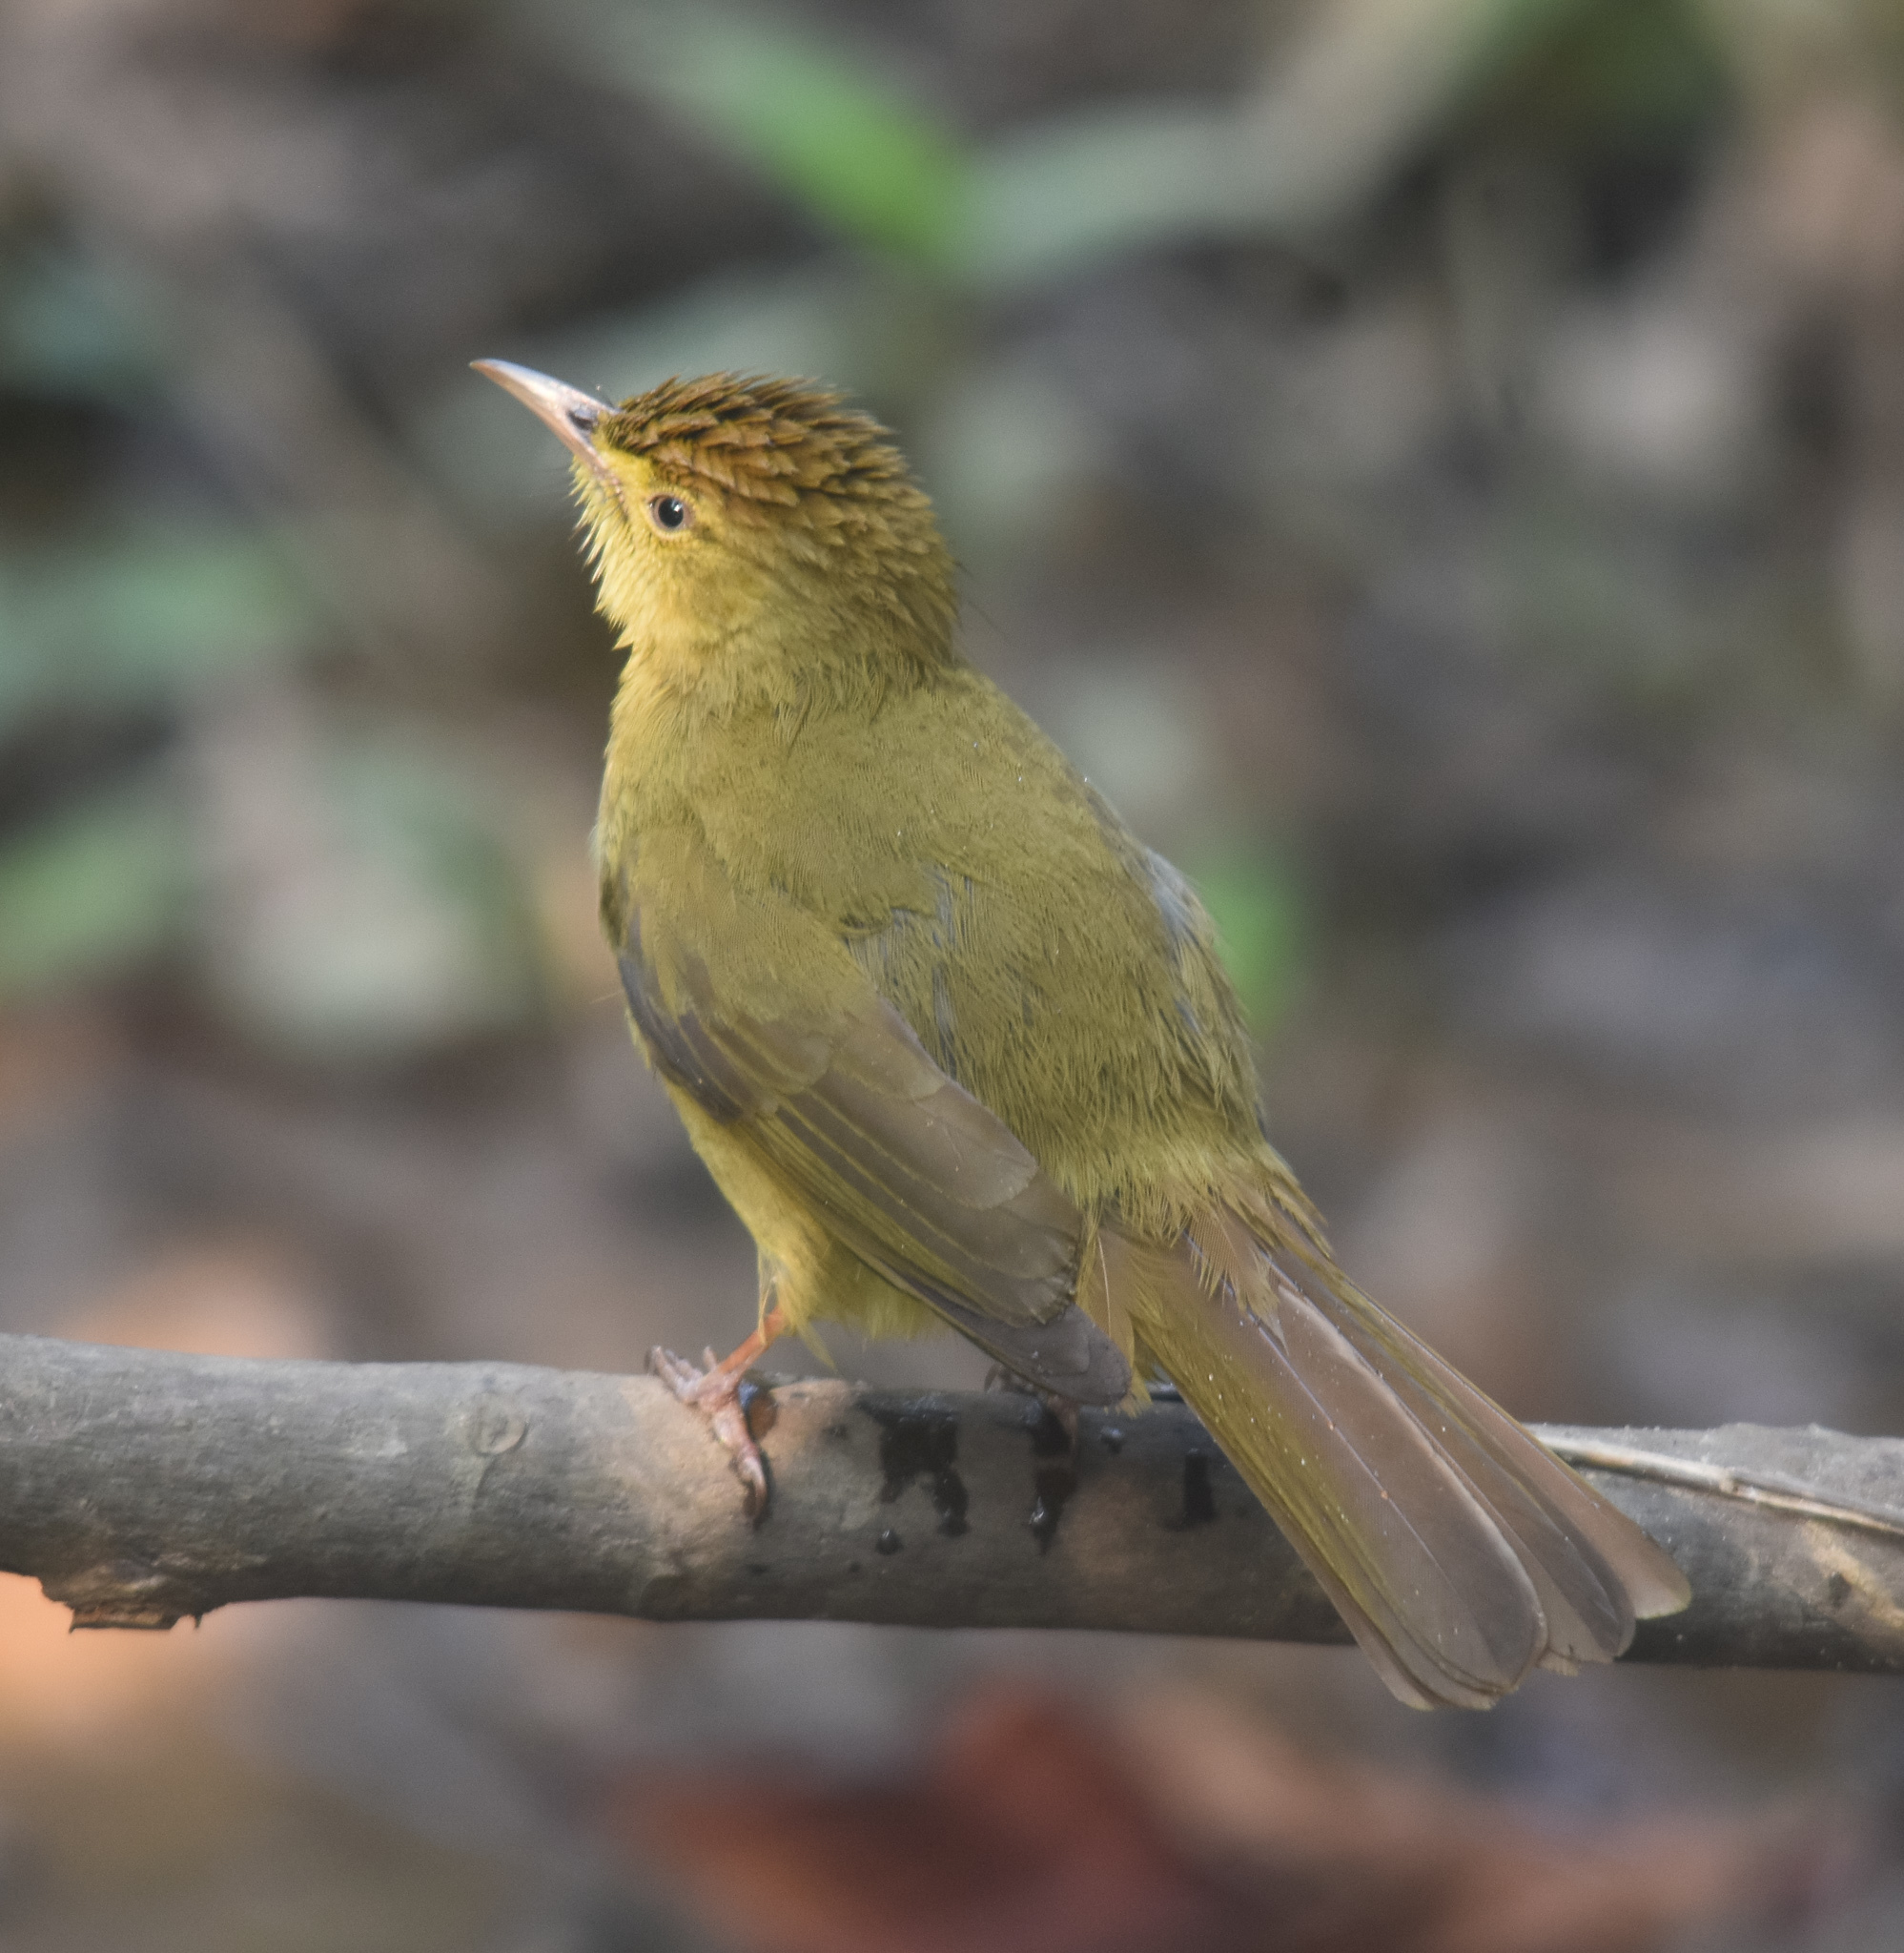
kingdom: Animalia
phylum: Chordata
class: Aves
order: Passeriformes
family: Pycnonotidae
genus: Iole
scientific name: Iole virescens
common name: Olive bulbul
